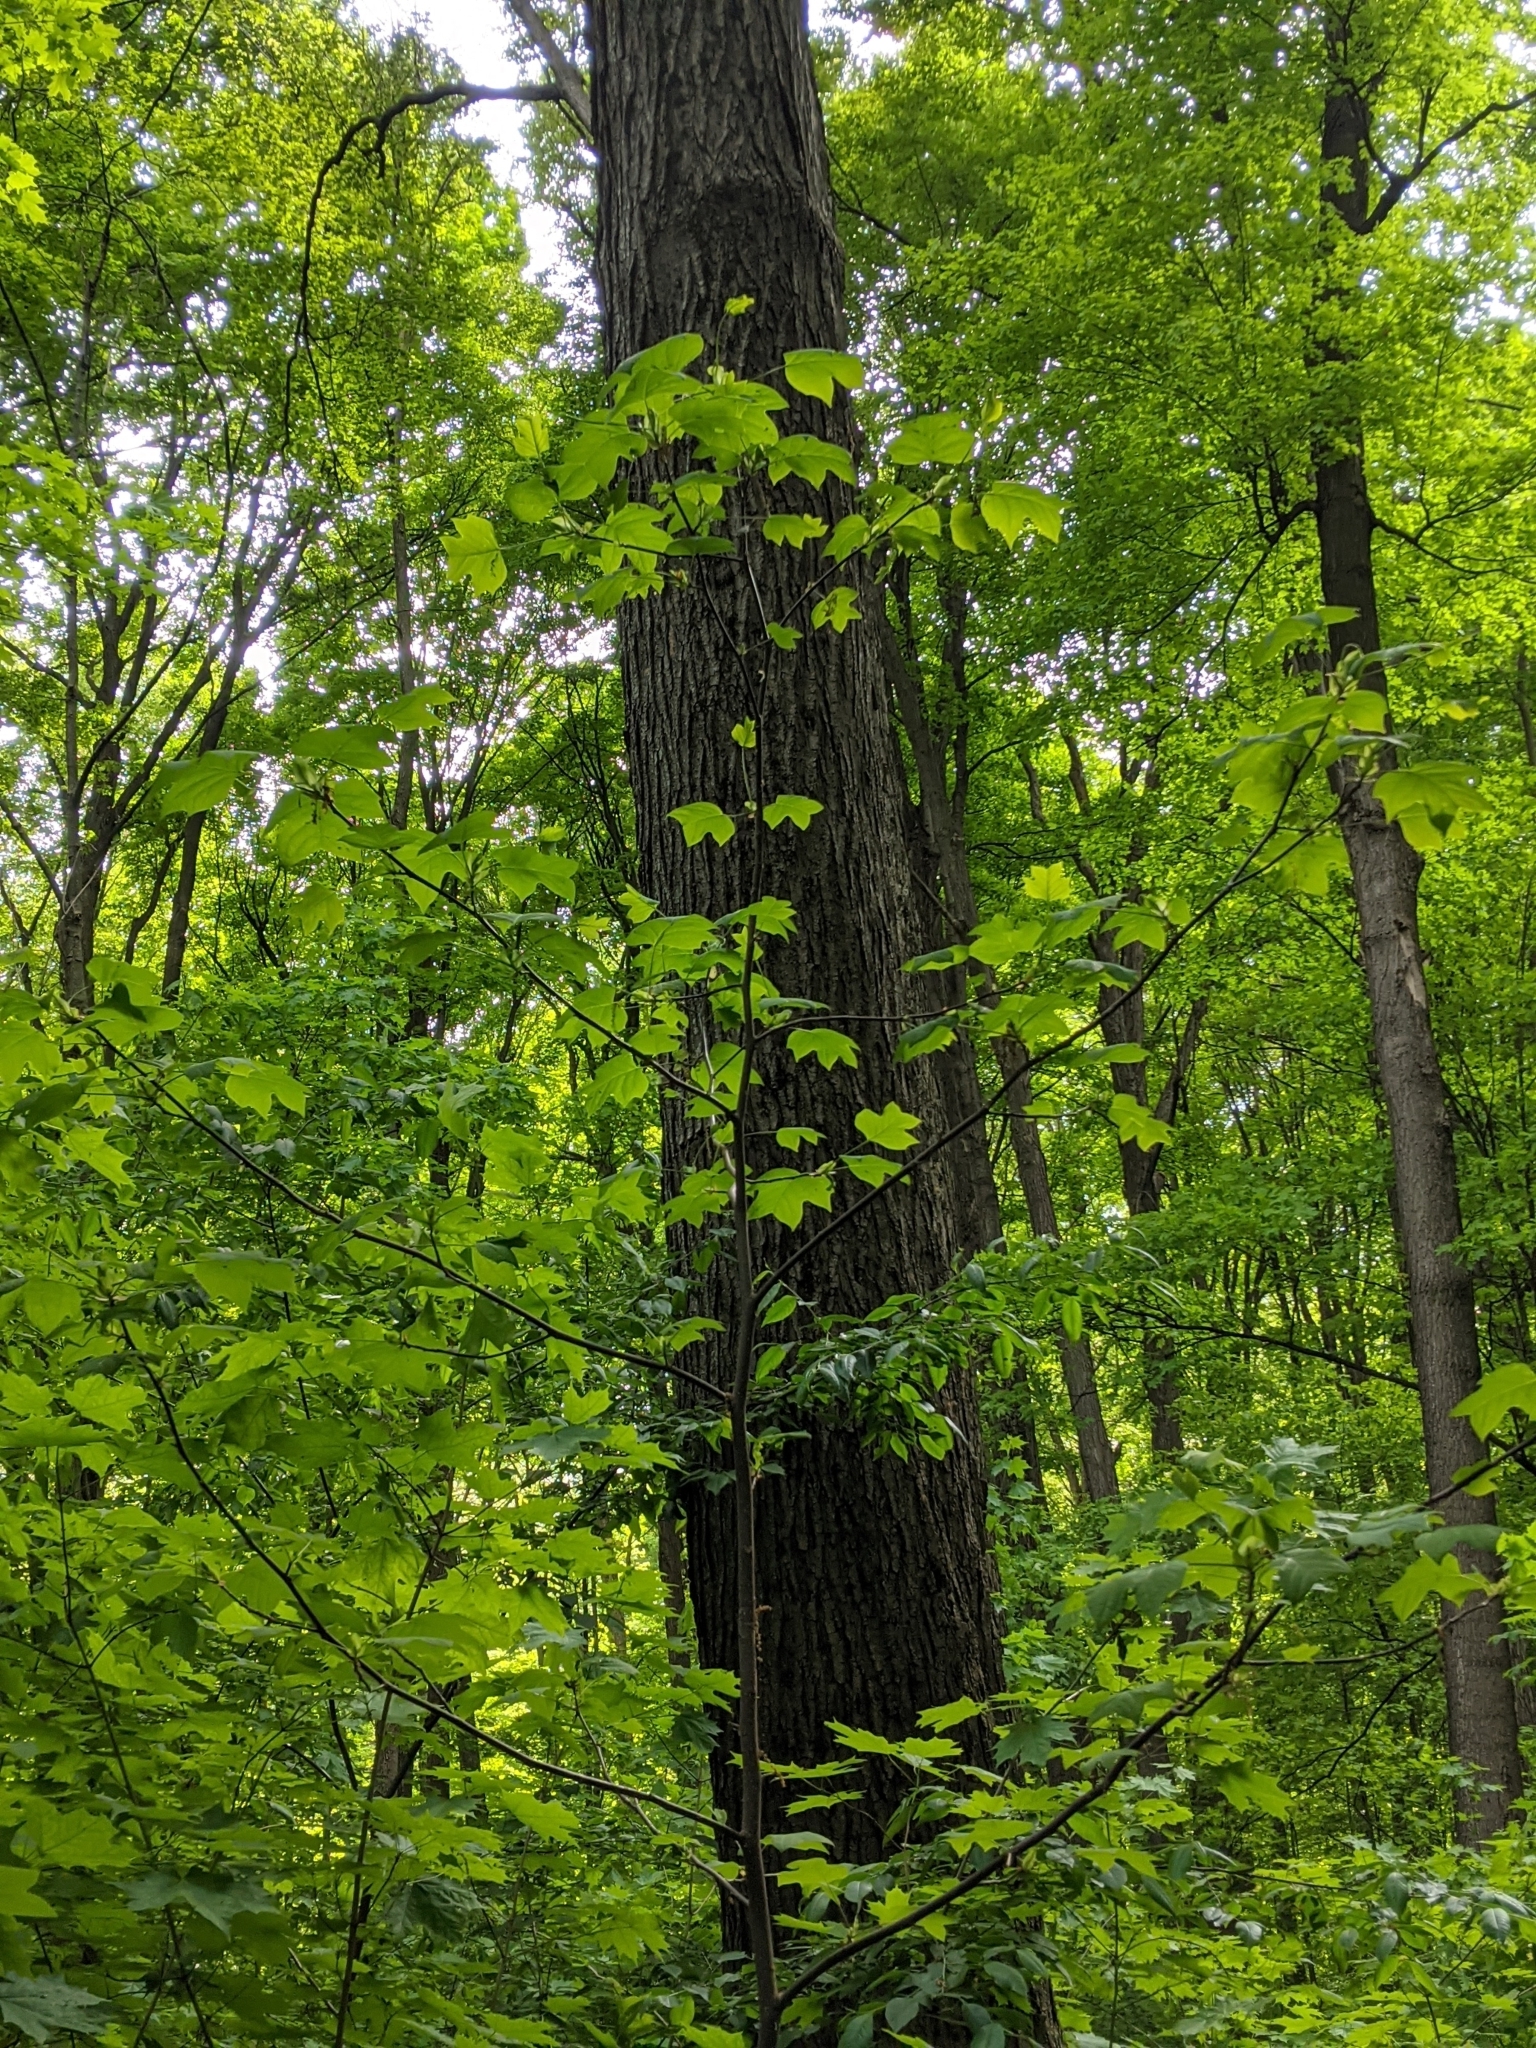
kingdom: Plantae
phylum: Tracheophyta
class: Magnoliopsida
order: Magnoliales
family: Magnoliaceae
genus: Liriodendron
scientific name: Liriodendron tulipifera
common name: Tulip tree
